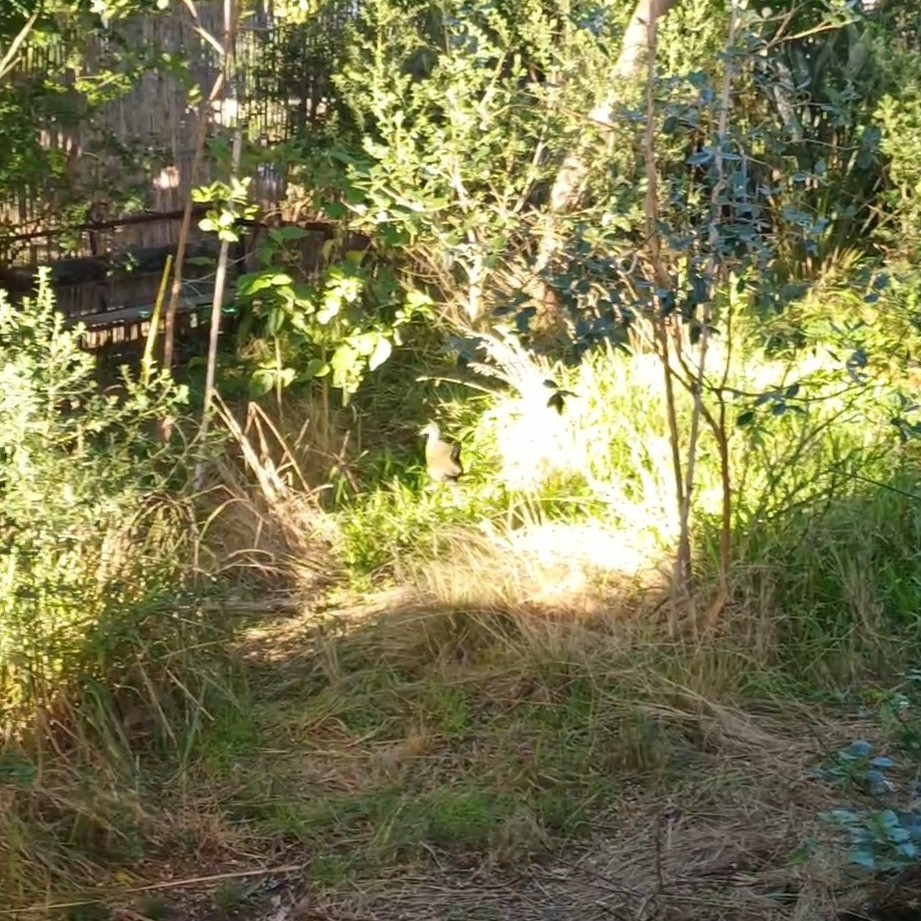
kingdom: Animalia
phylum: Chordata
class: Aves
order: Gruiformes
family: Rallidae
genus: Aramides
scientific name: Aramides cajanea
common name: Gray-necked wood-rail
